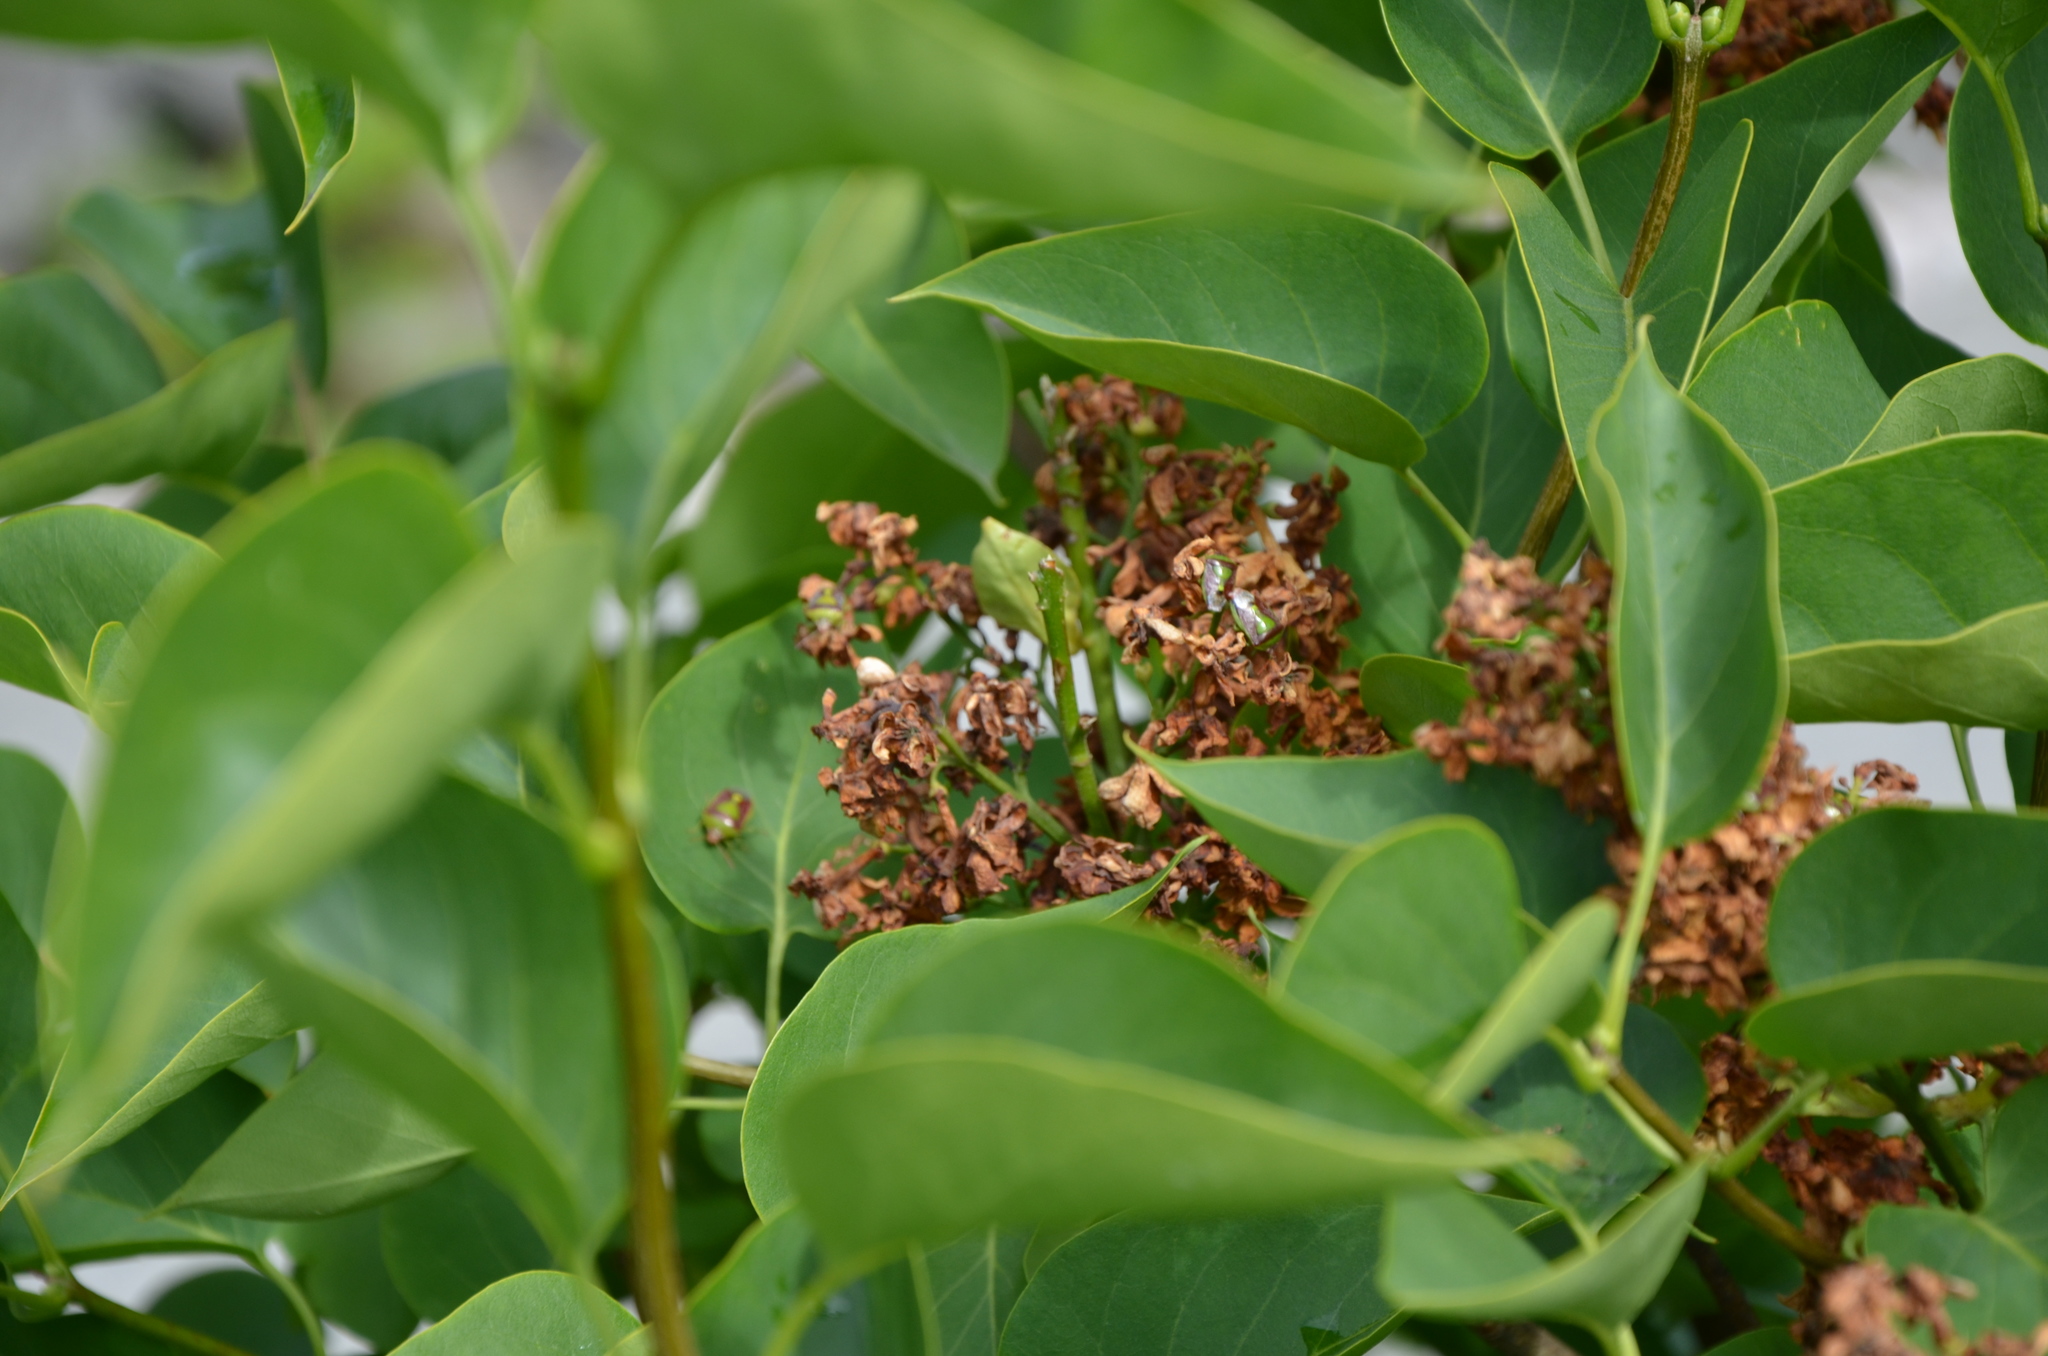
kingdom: Animalia
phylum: Arthropoda
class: Insecta
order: Hemiptera
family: Pentatomidae
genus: Banasa
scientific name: Banasa dimidiata
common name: Green burgundy stink bug
